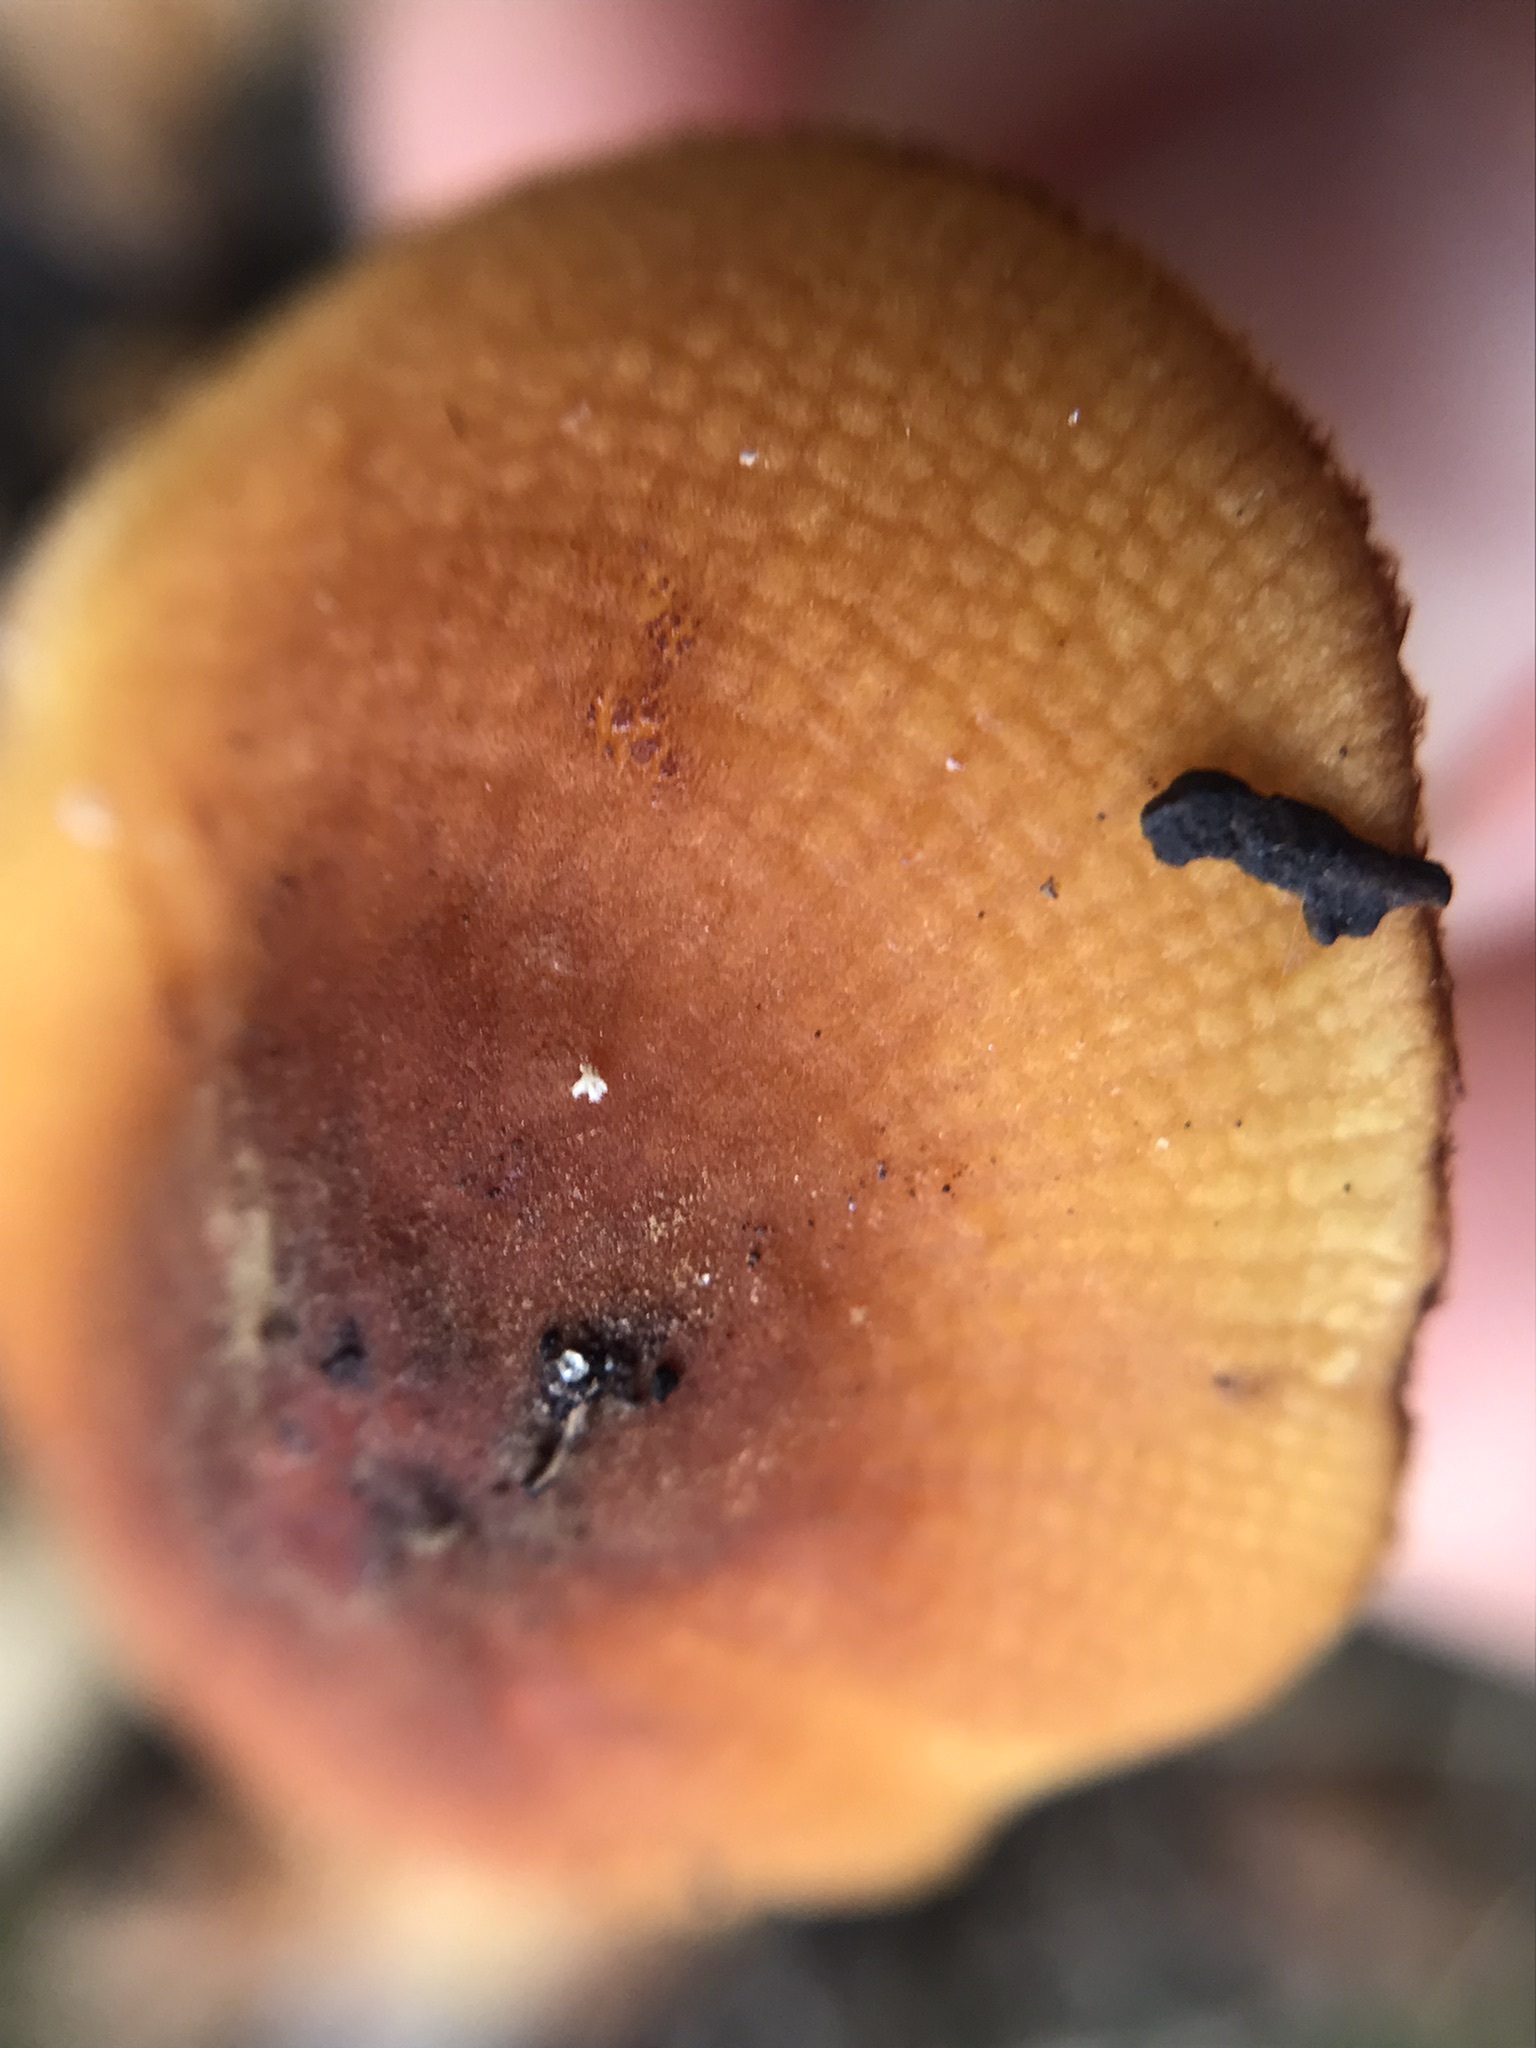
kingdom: Fungi
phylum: Basidiomycota
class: Agaricomycetes
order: Agaricales
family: Mycenaceae
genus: Xeromphalina
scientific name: Xeromphalina tenuipes
